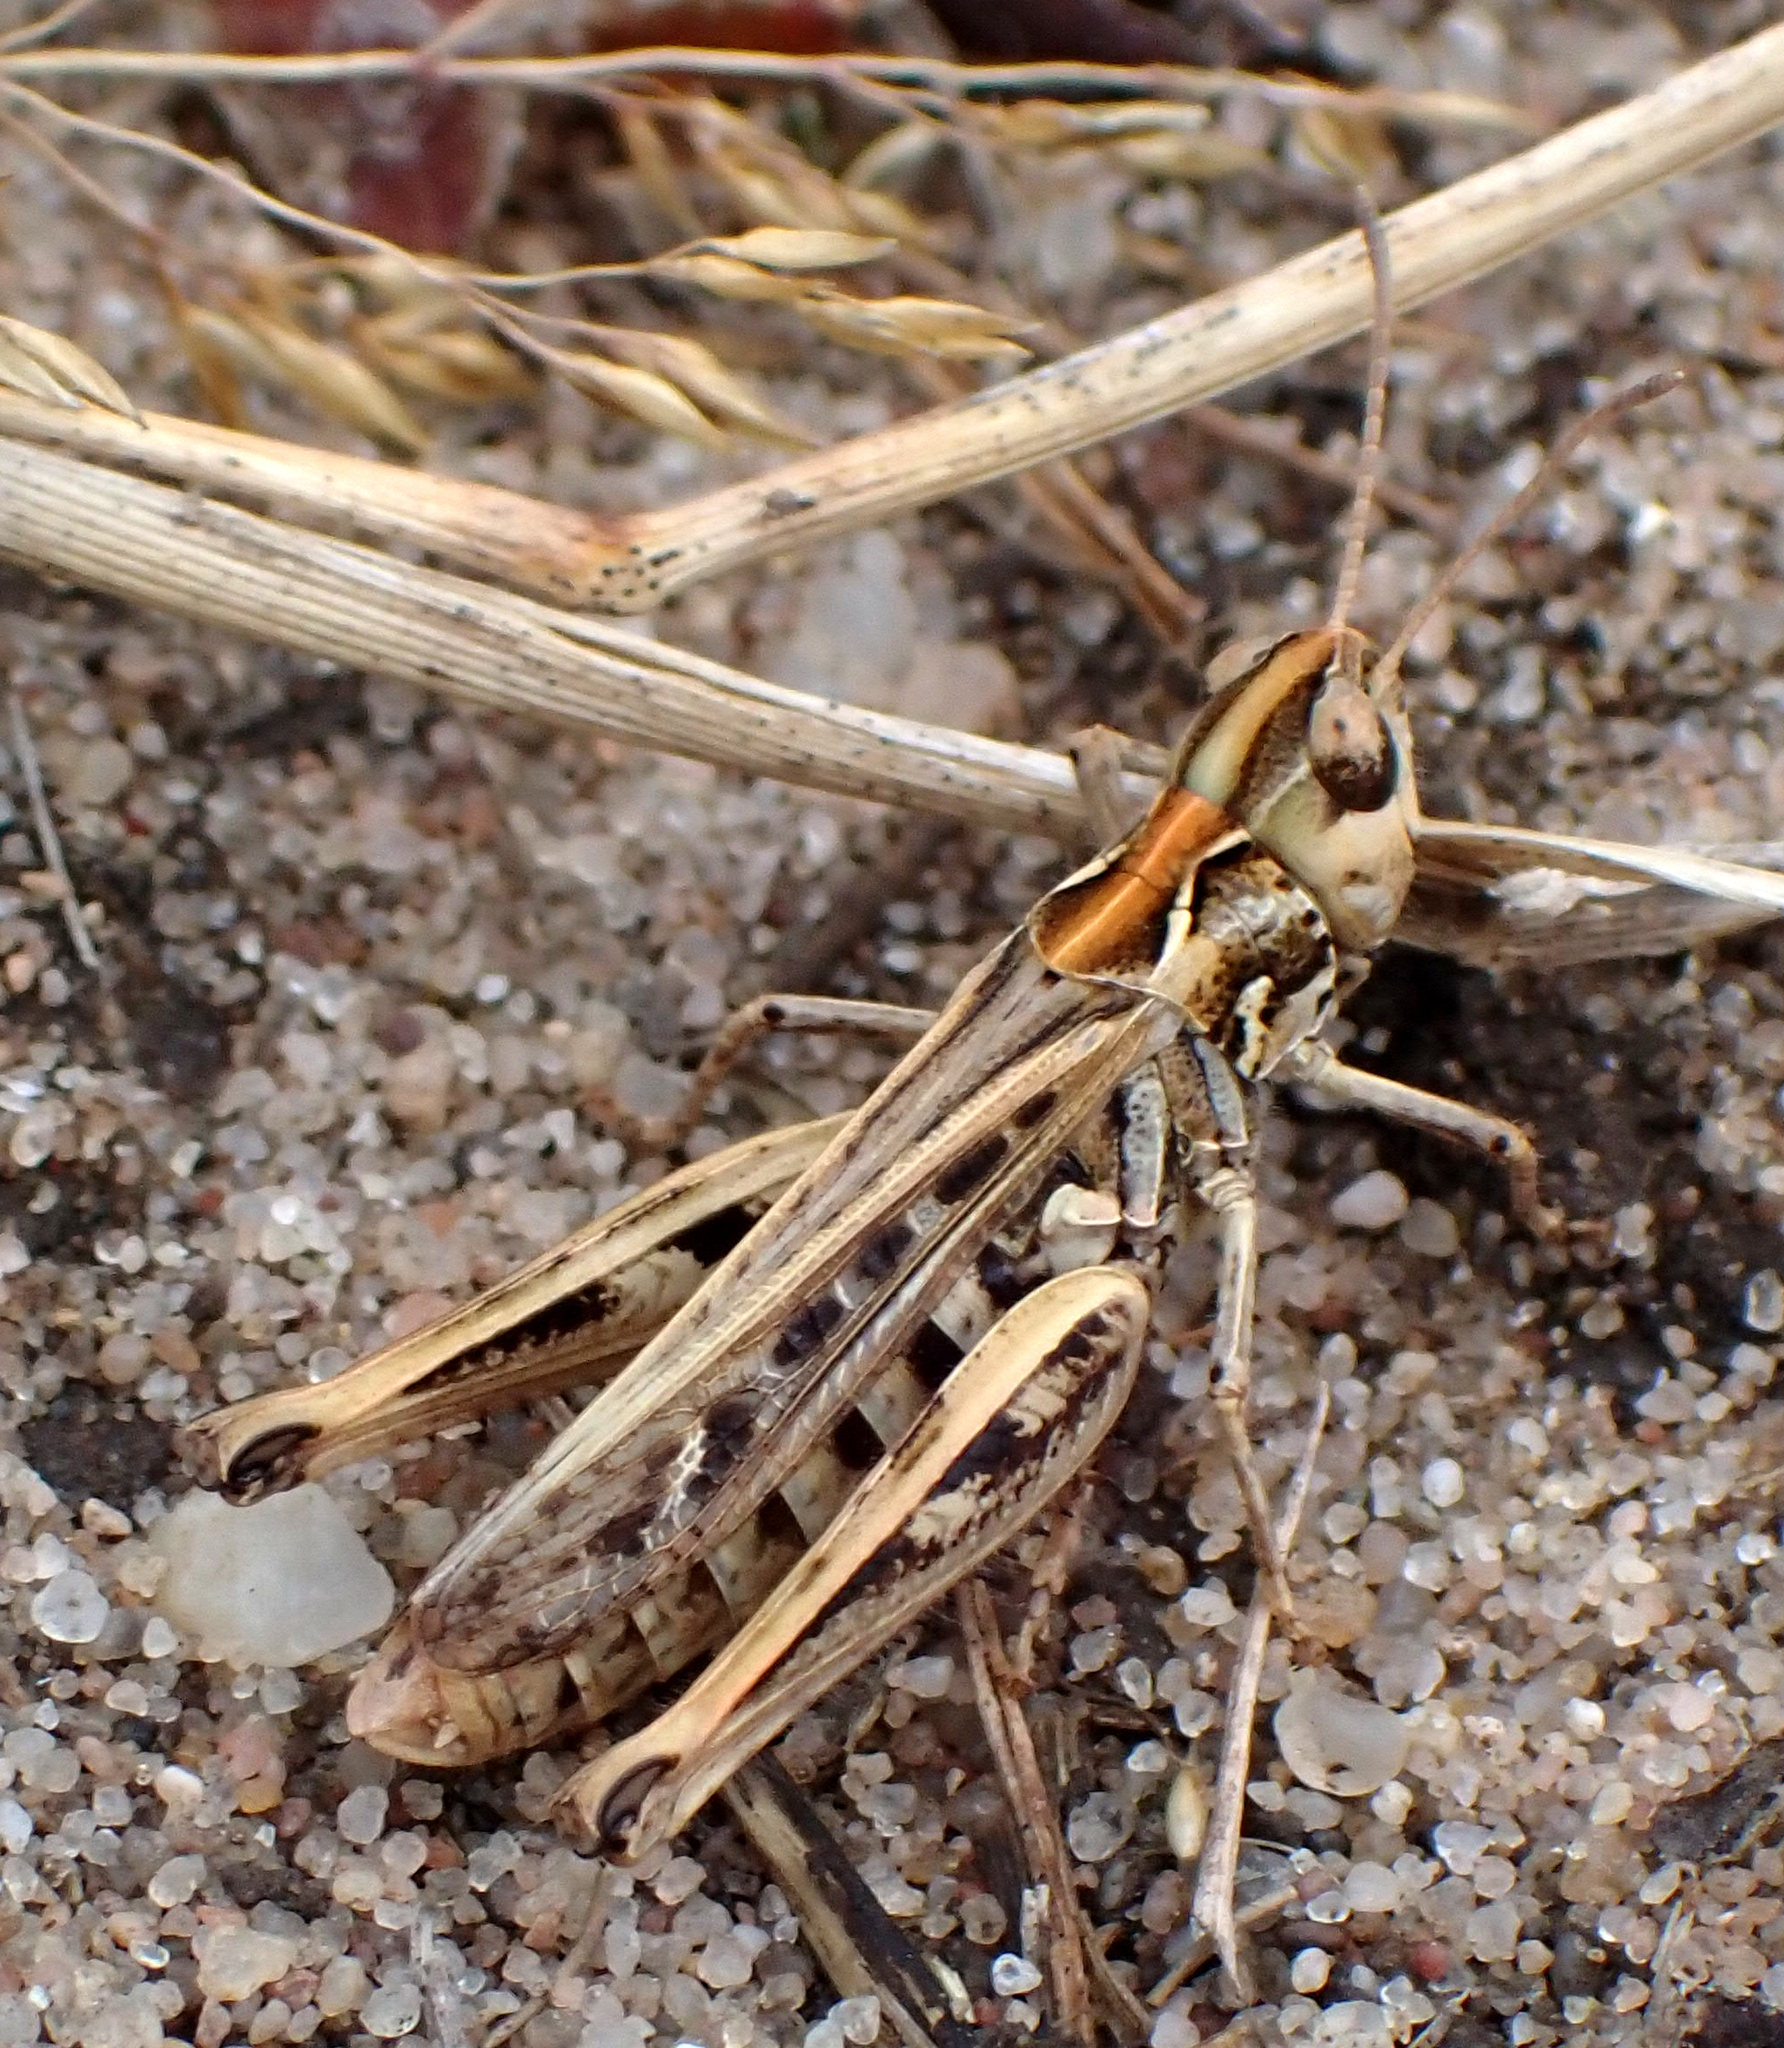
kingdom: Animalia
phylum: Arthropoda
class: Insecta
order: Orthoptera
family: Acrididae
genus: Myrmeleotettix
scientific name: Myrmeleotettix maculatus
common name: Mottled grasshopper
